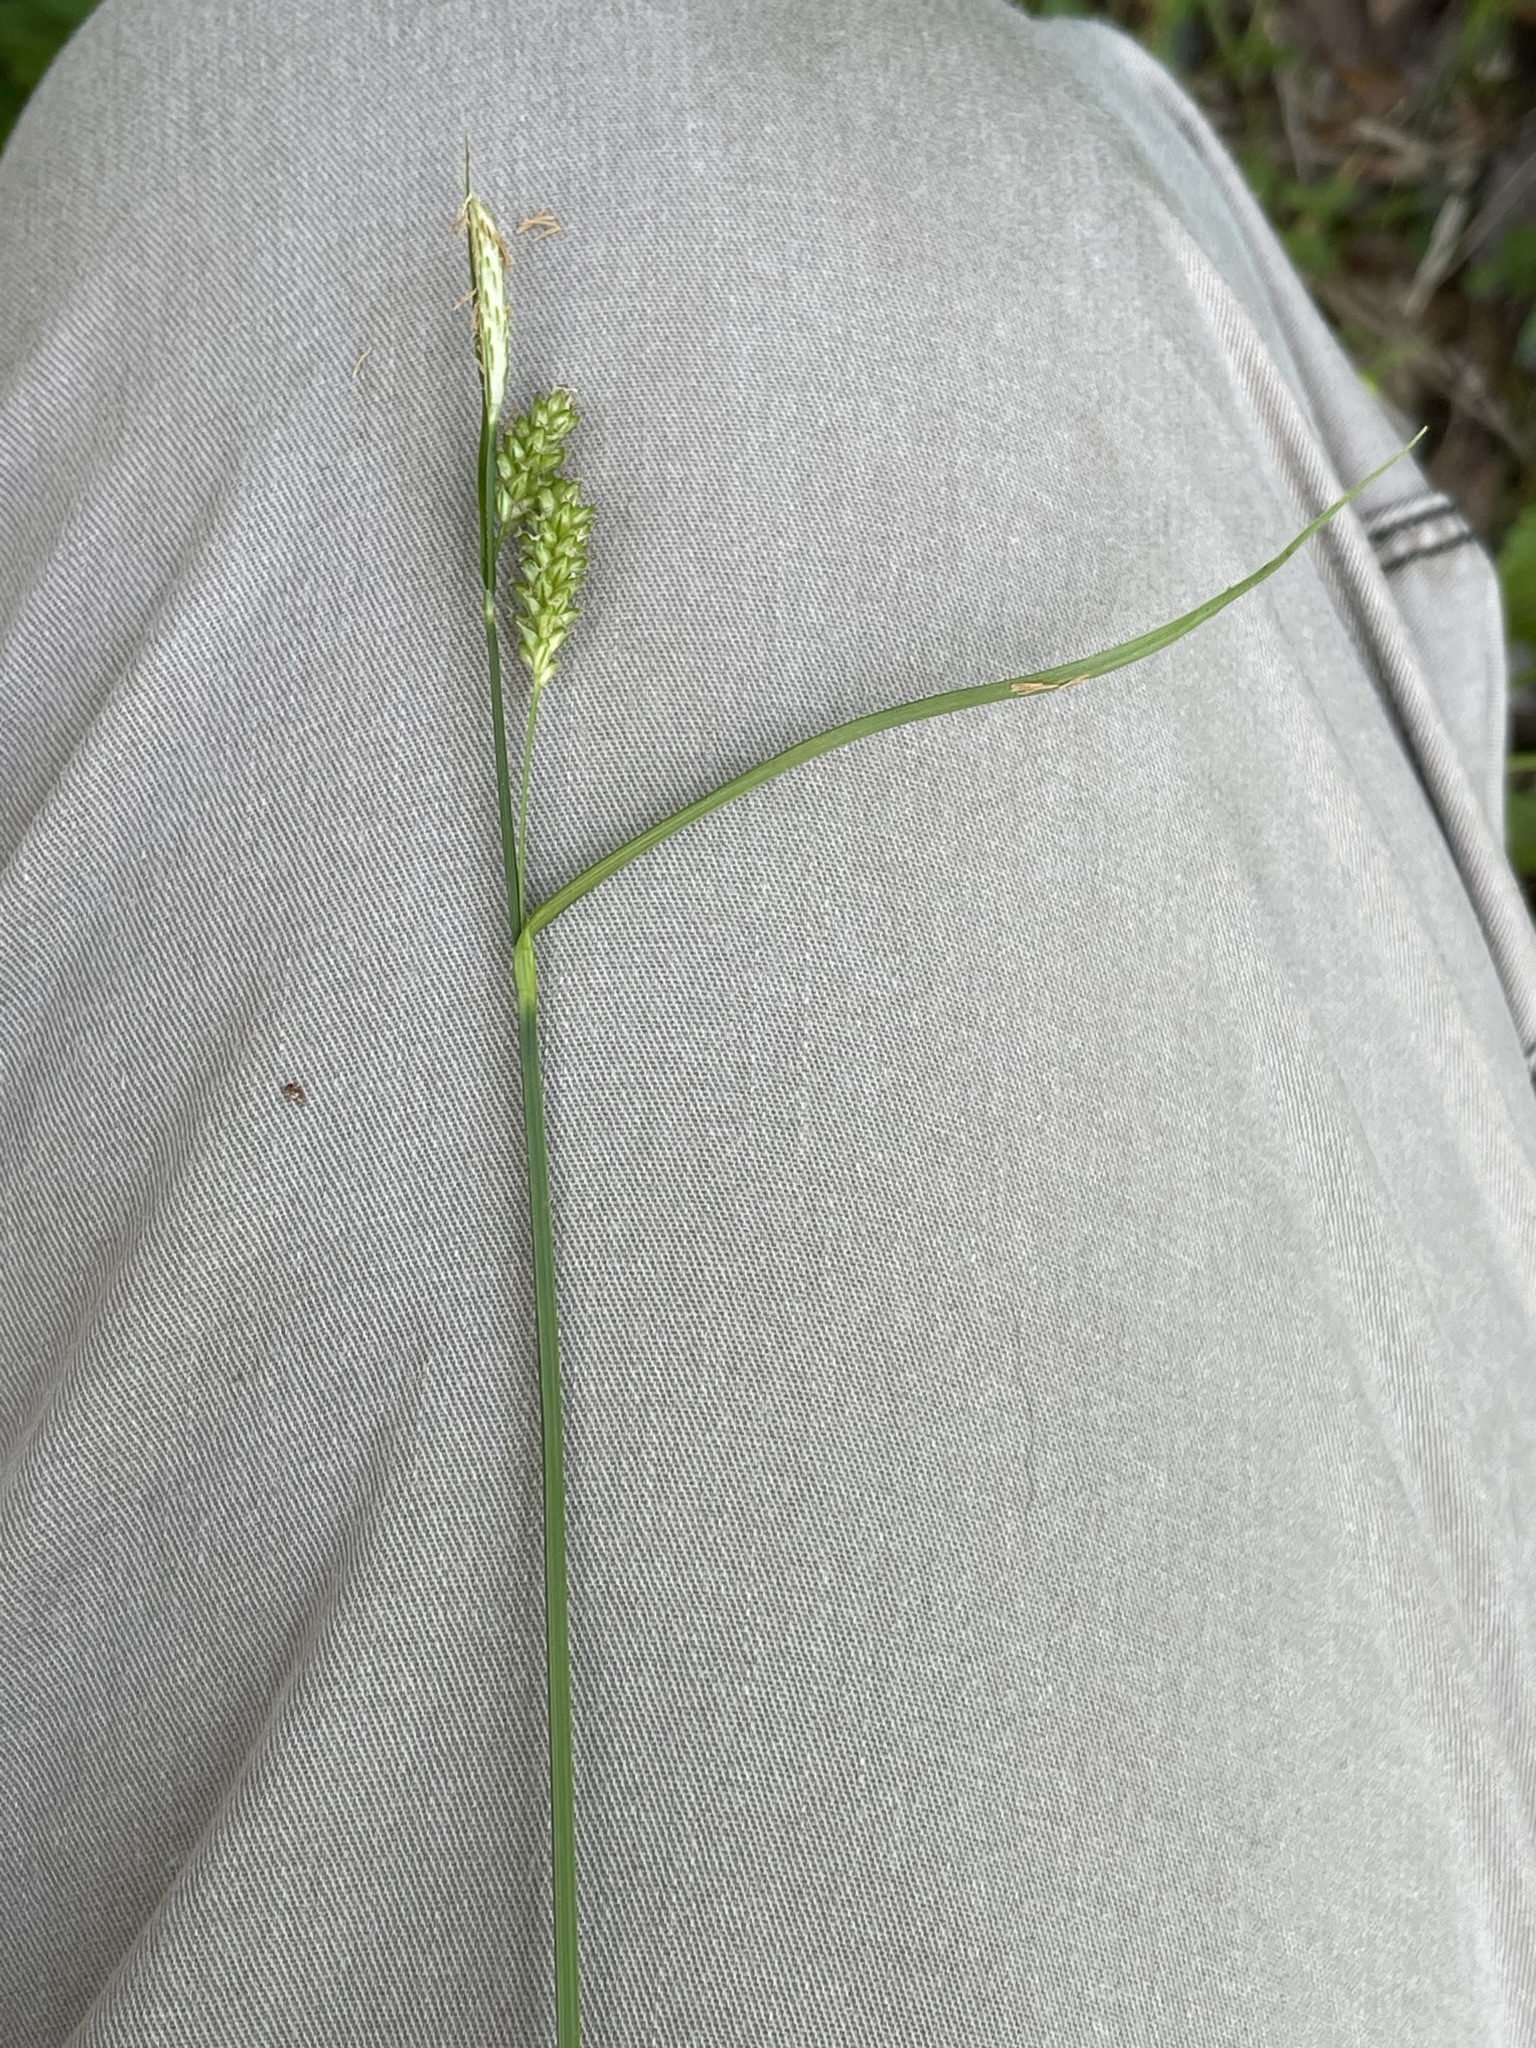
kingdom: Plantae
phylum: Tracheophyta
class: Liliopsida
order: Poales
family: Cyperaceae
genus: Carex
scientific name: Carex pallescens
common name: Pale sedge
